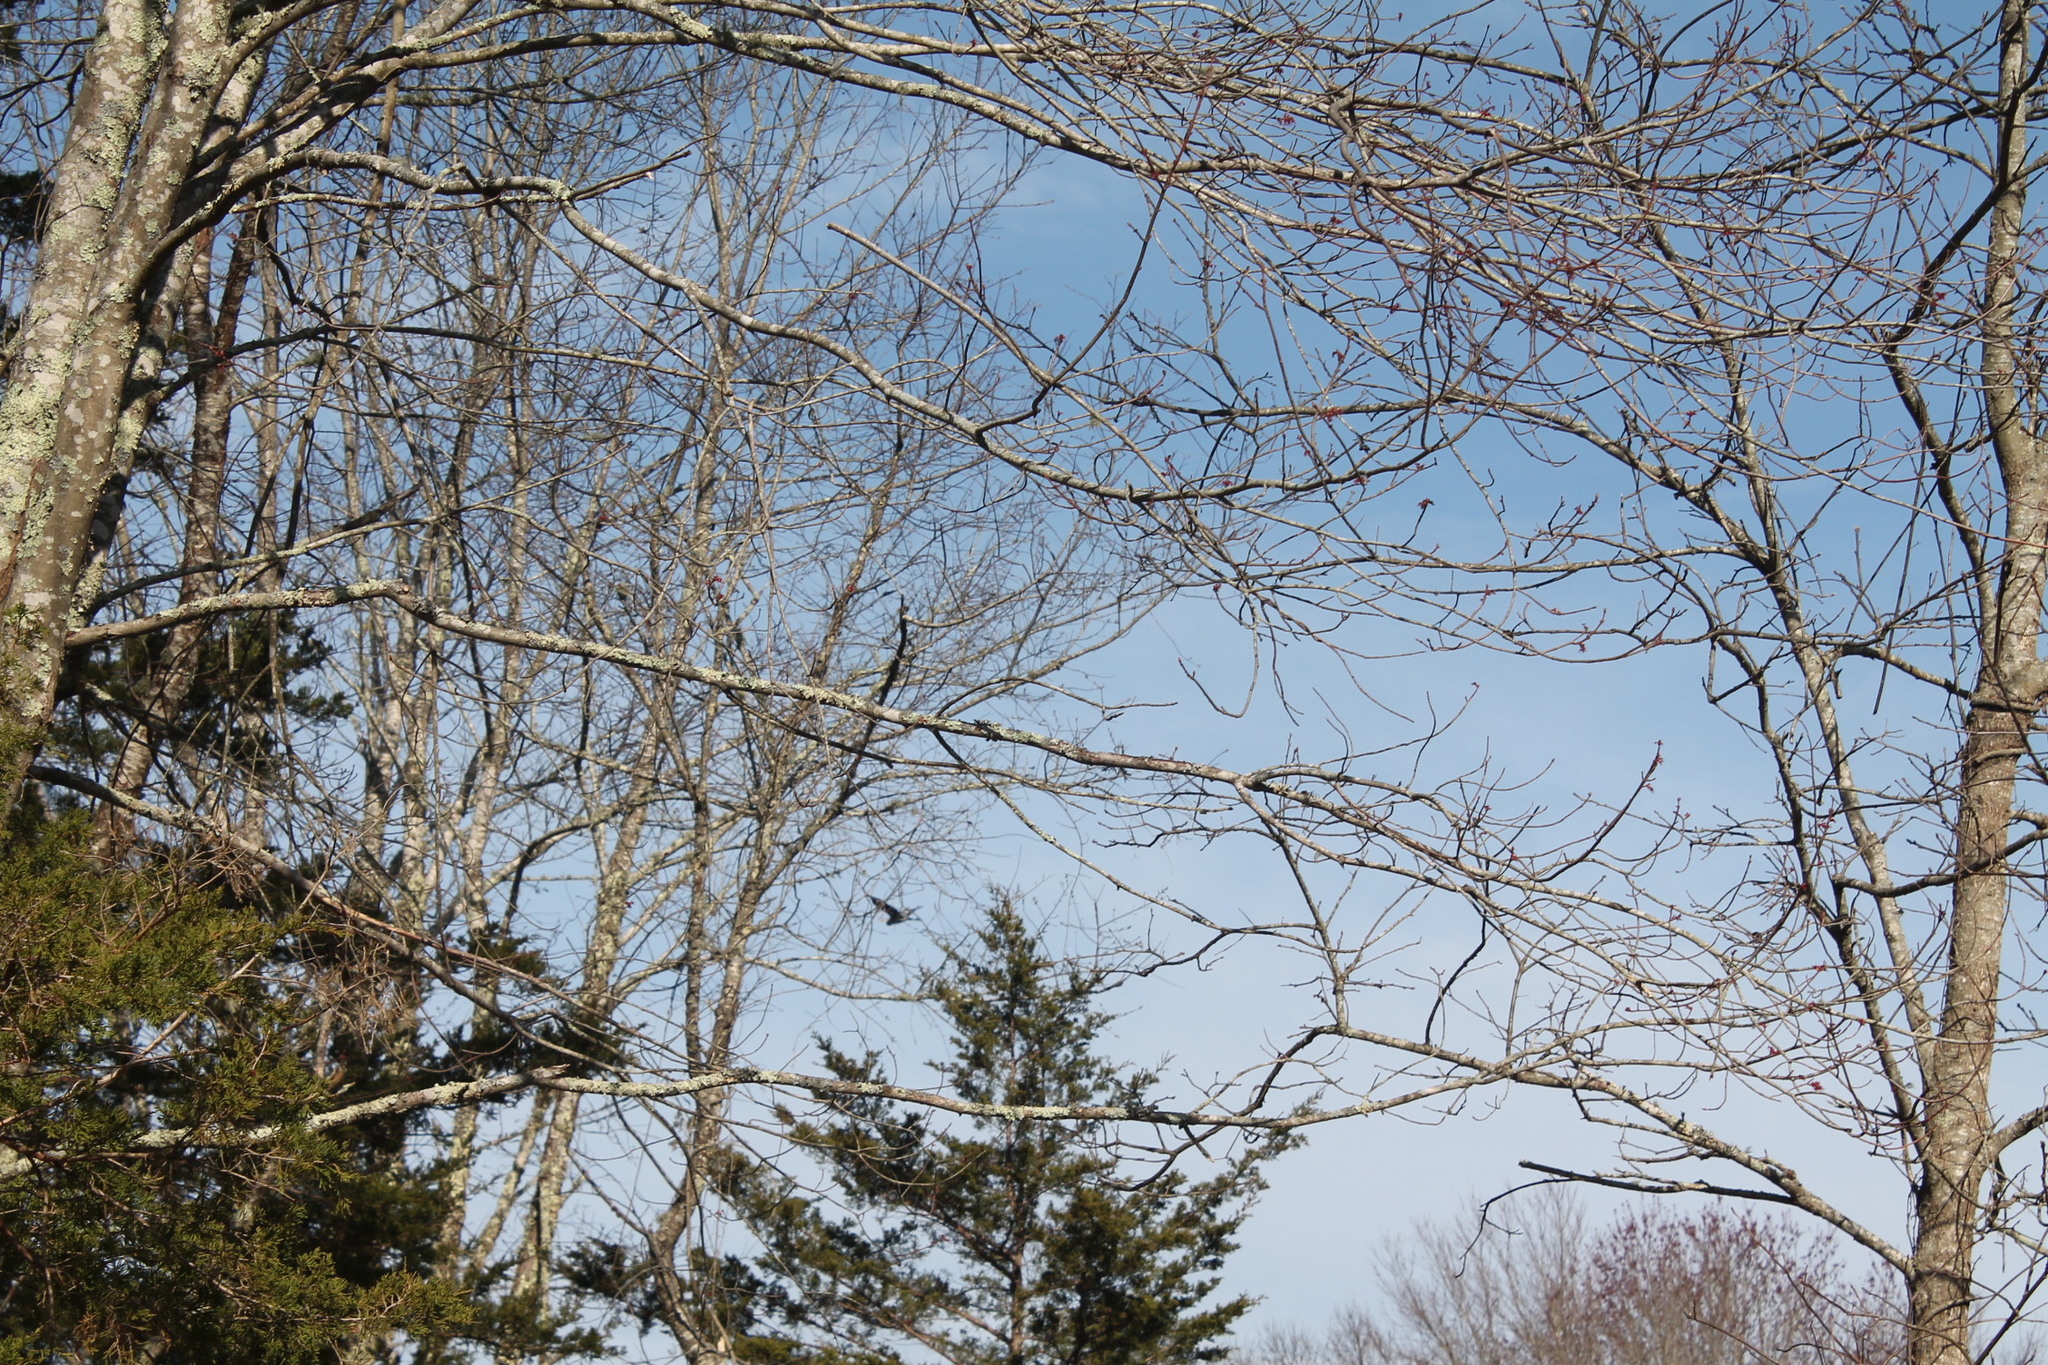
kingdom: Animalia
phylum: Chordata
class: Aves
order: Pelecaniformes
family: Ardeidae
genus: Ardea
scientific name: Ardea herodias
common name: Great blue heron
